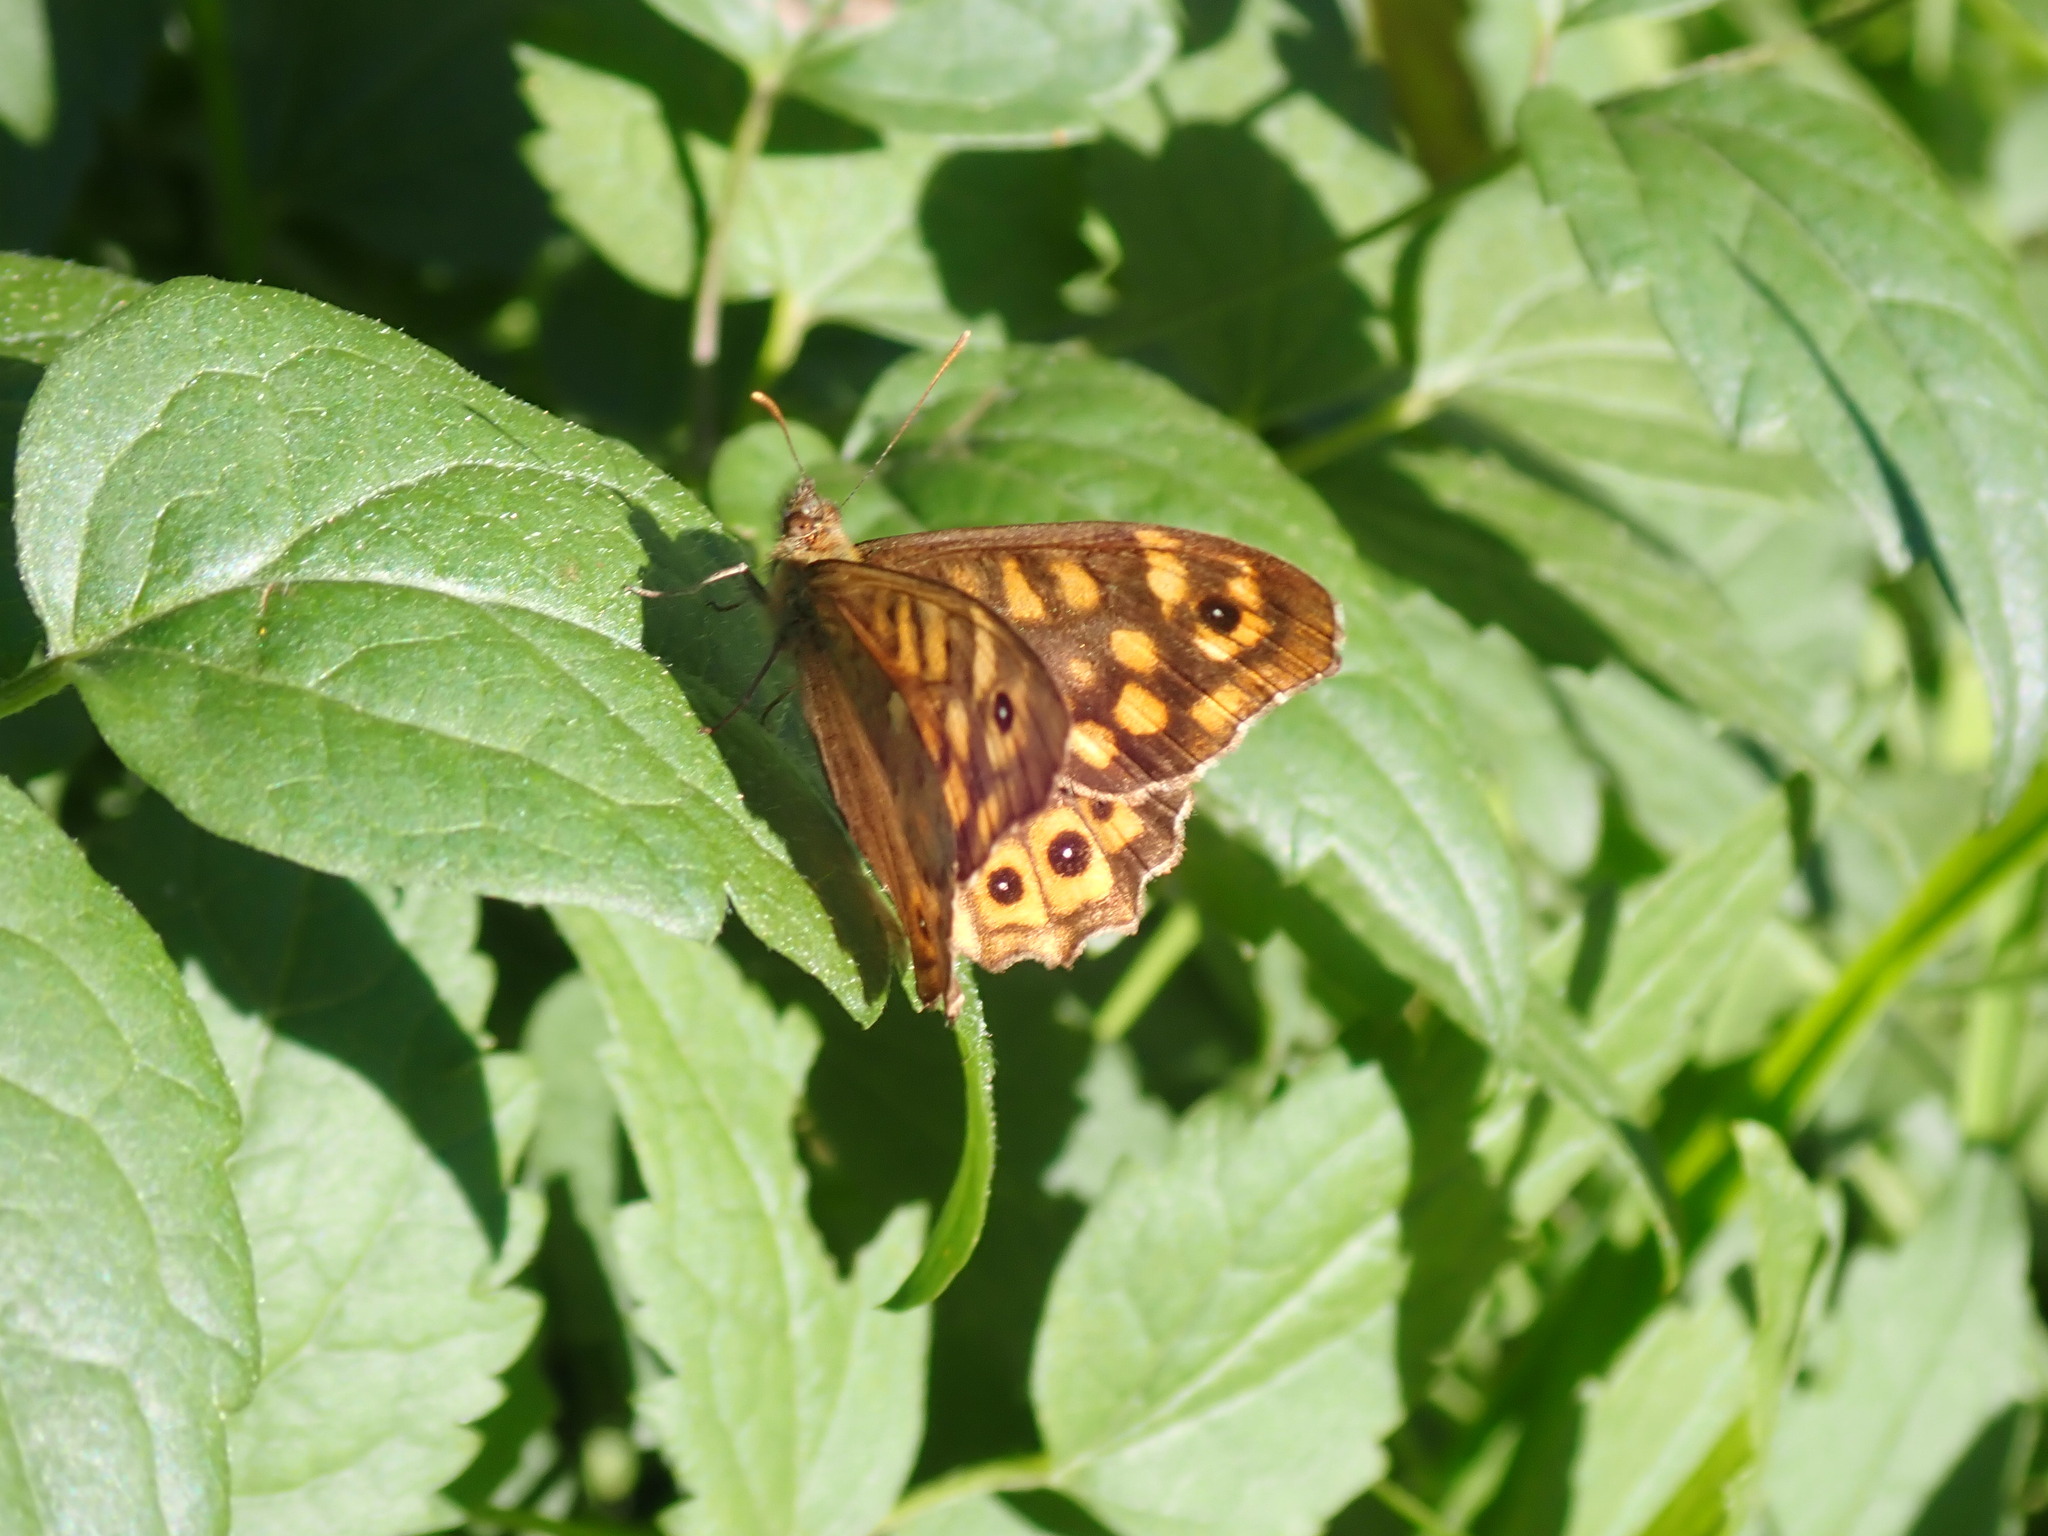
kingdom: Animalia
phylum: Arthropoda
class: Insecta
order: Lepidoptera
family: Nymphalidae
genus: Pararge
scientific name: Pararge aegeria
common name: Speckled wood
